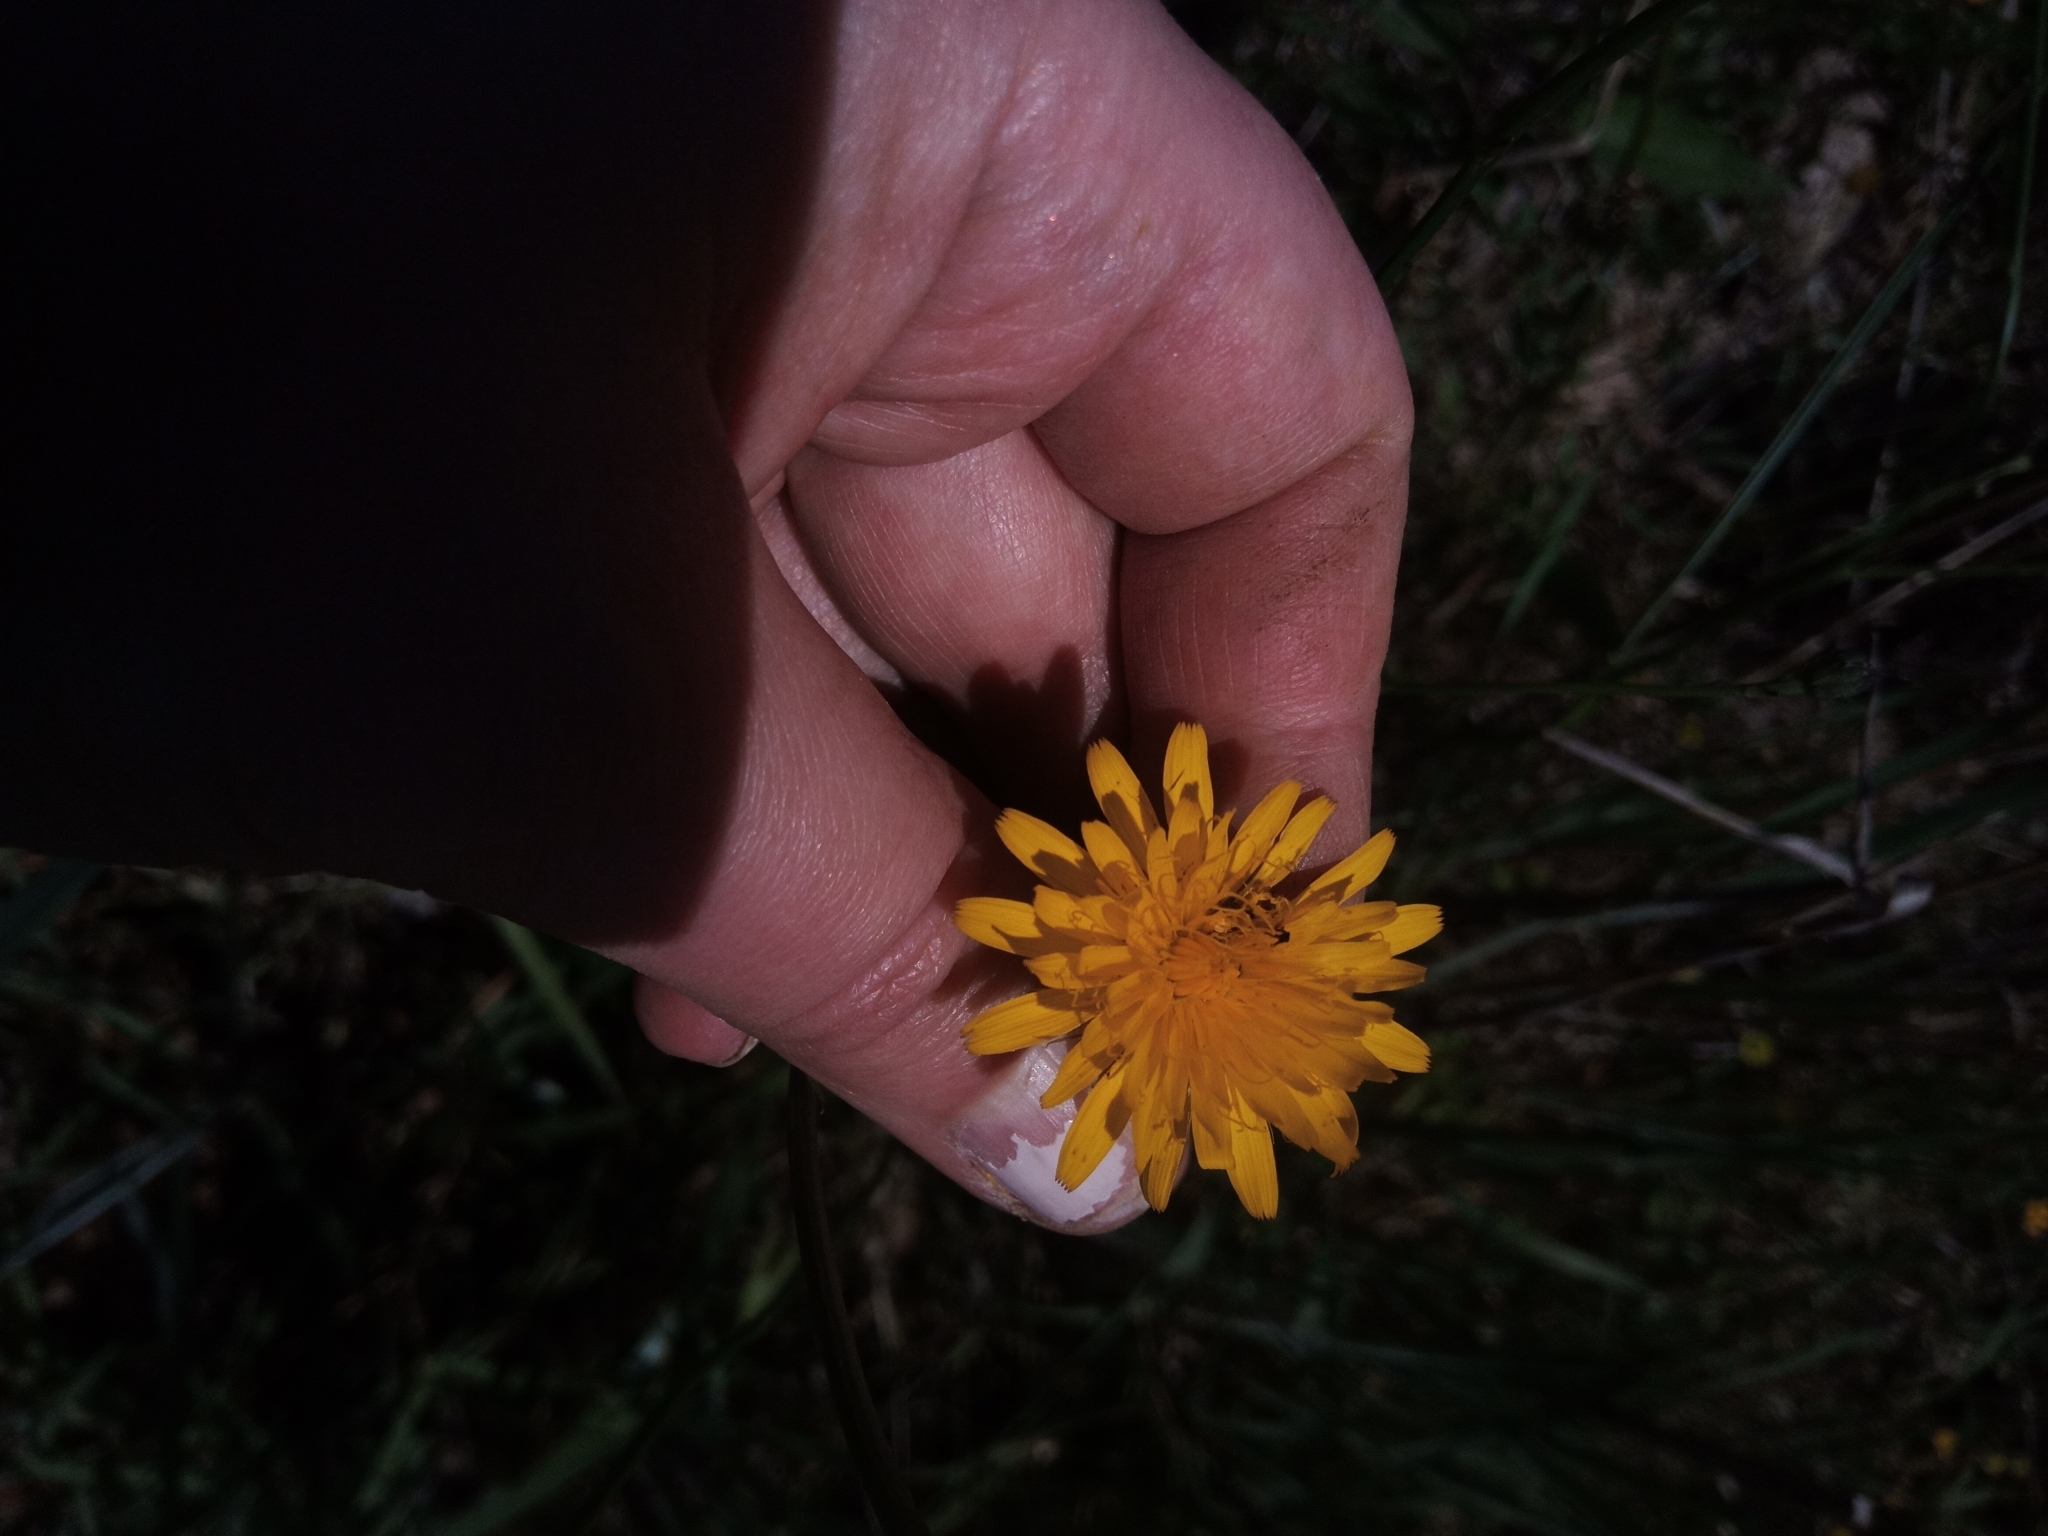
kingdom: Plantae
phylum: Tracheophyta
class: Magnoliopsida
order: Asterales
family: Asteraceae
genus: Taraxacum
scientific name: Taraxacum officinale
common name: Common dandelion
